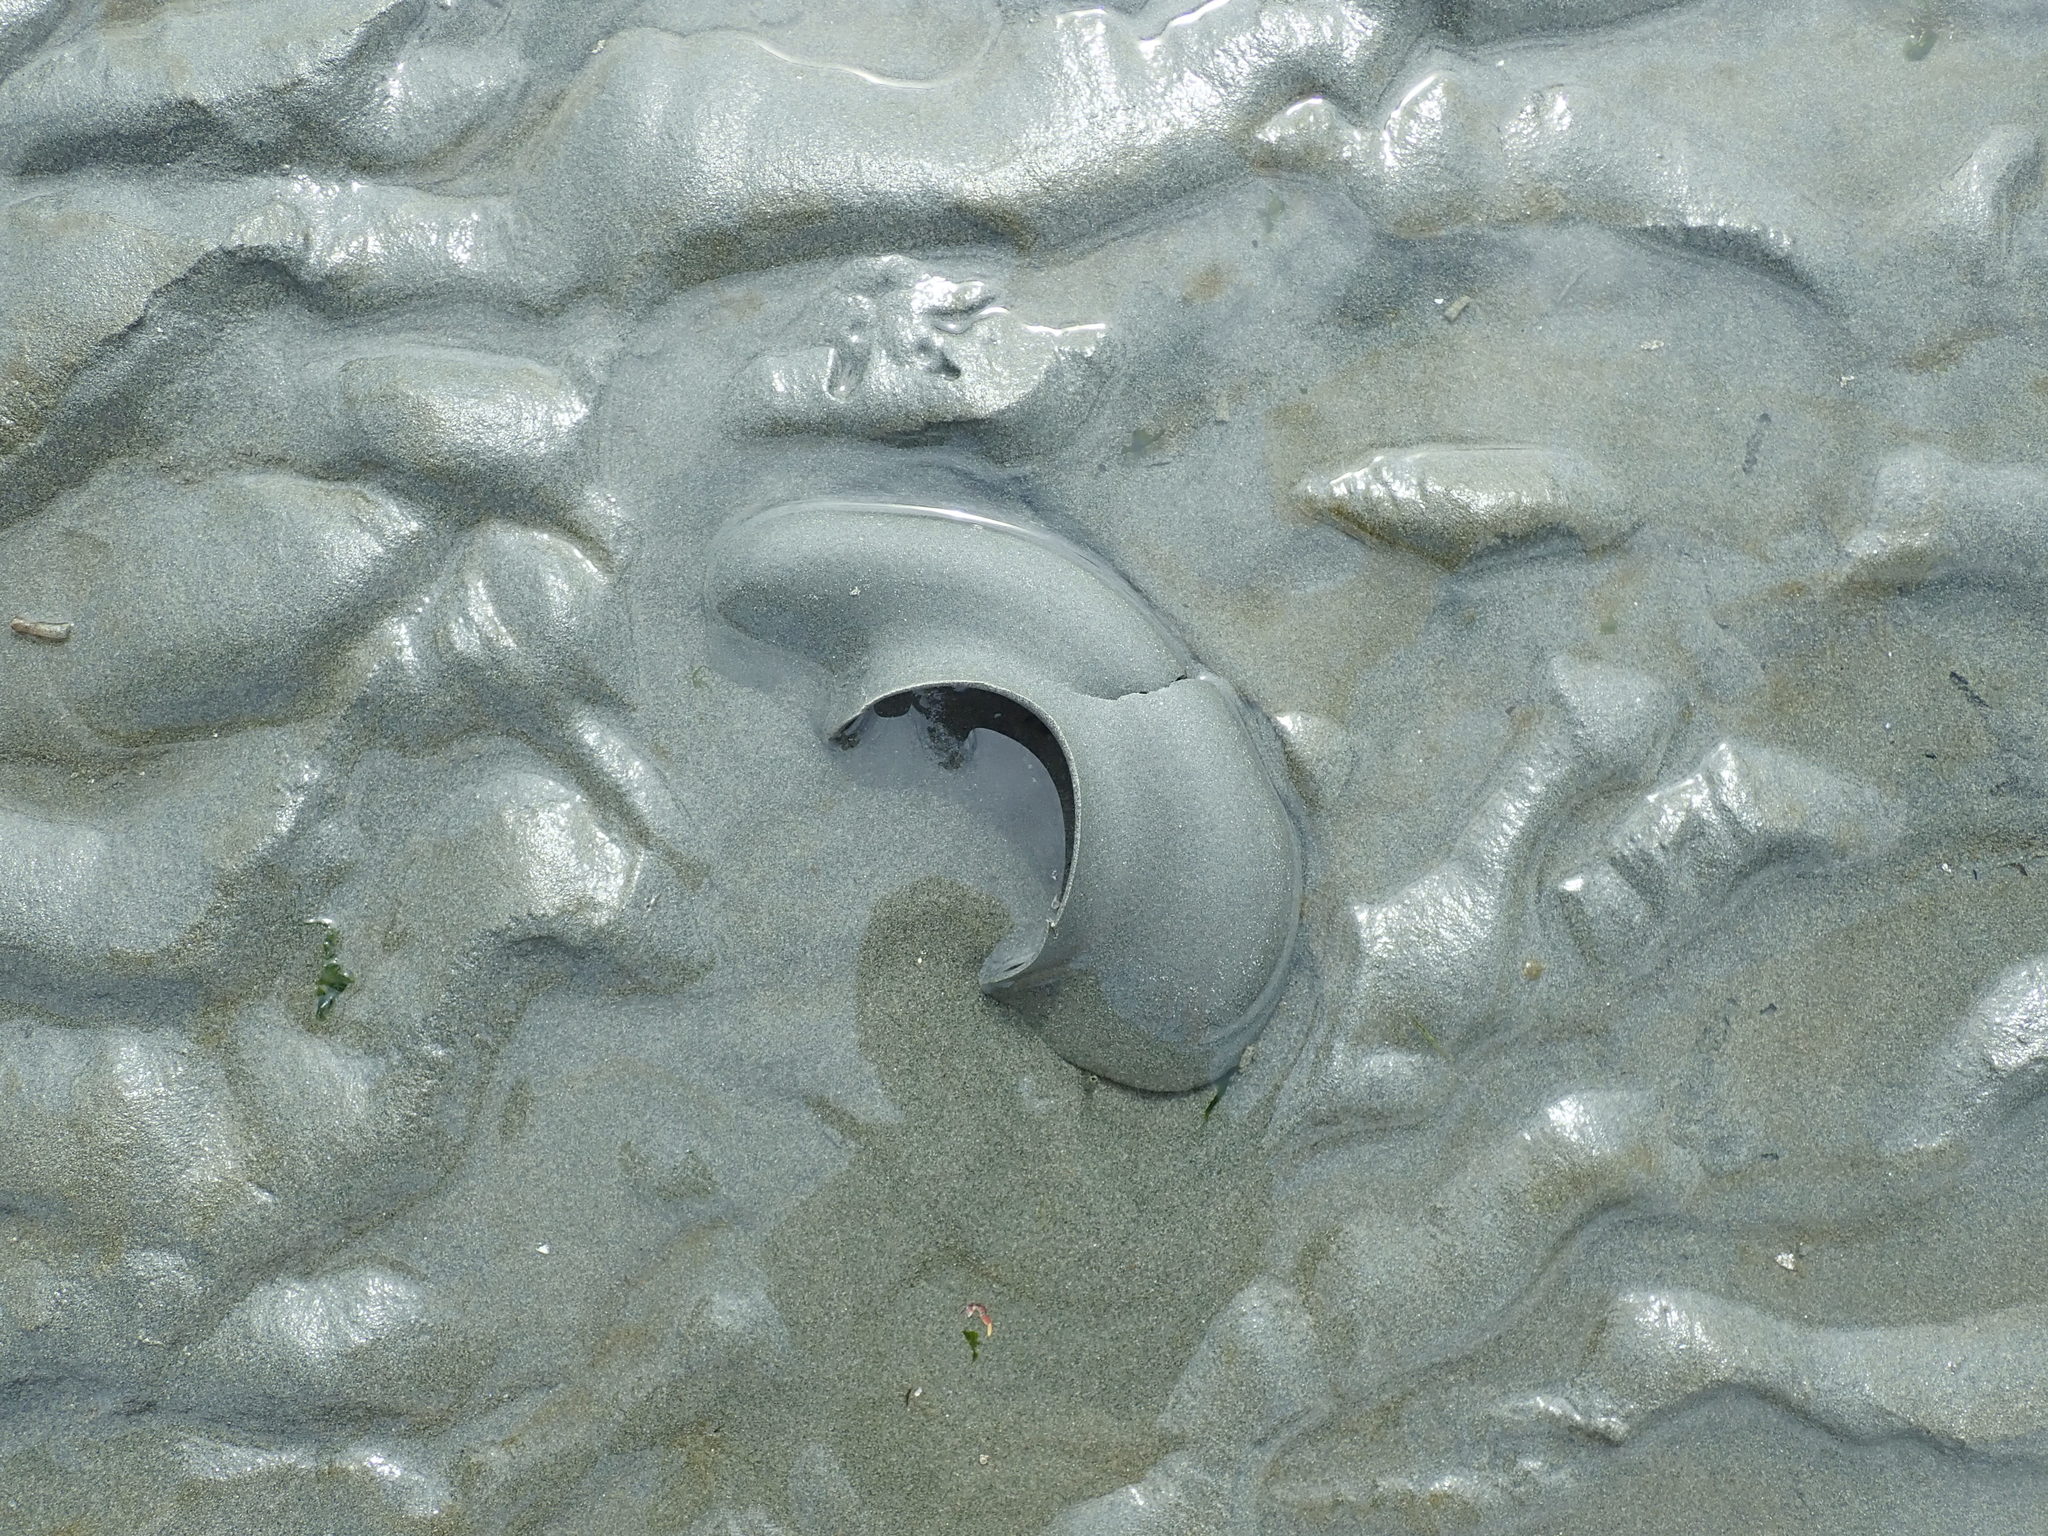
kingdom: Animalia
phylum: Mollusca
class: Gastropoda
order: Littorinimorpha
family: Naticidae
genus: Neverita
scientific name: Neverita lewisii
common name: Lewis' moonsnail
